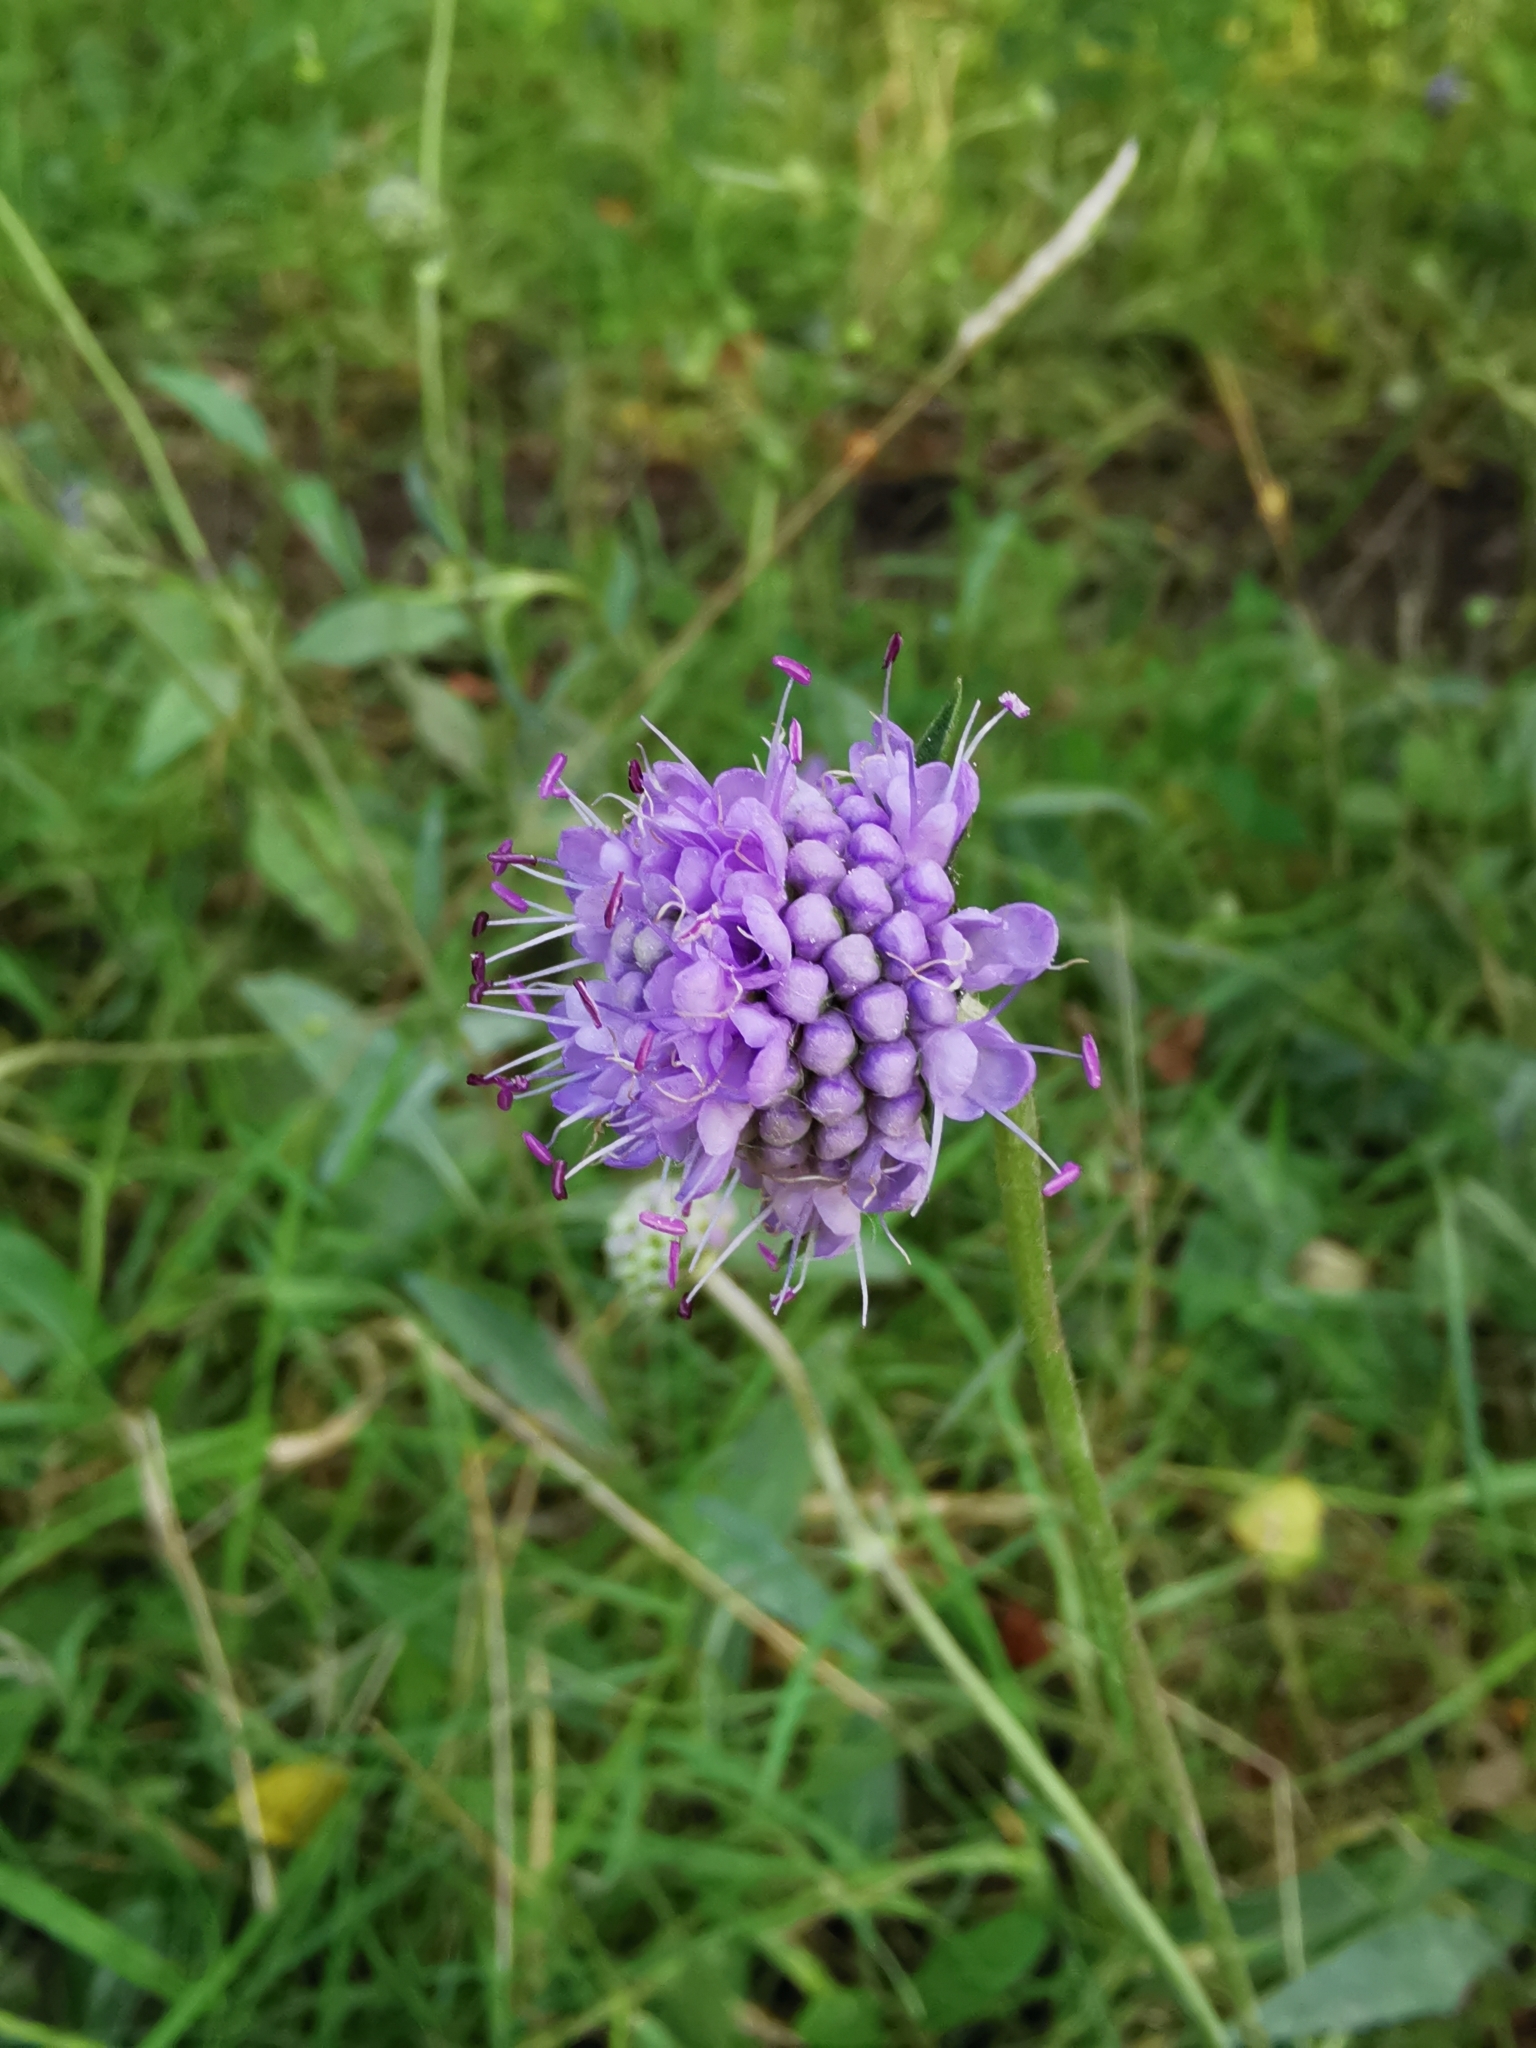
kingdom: Plantae
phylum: Tracheophyta
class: Magnoliopsida
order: Dipsacales
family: Caprifoliaceae
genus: Succisa
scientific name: Succisa pratensis
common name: Devil's-bit
